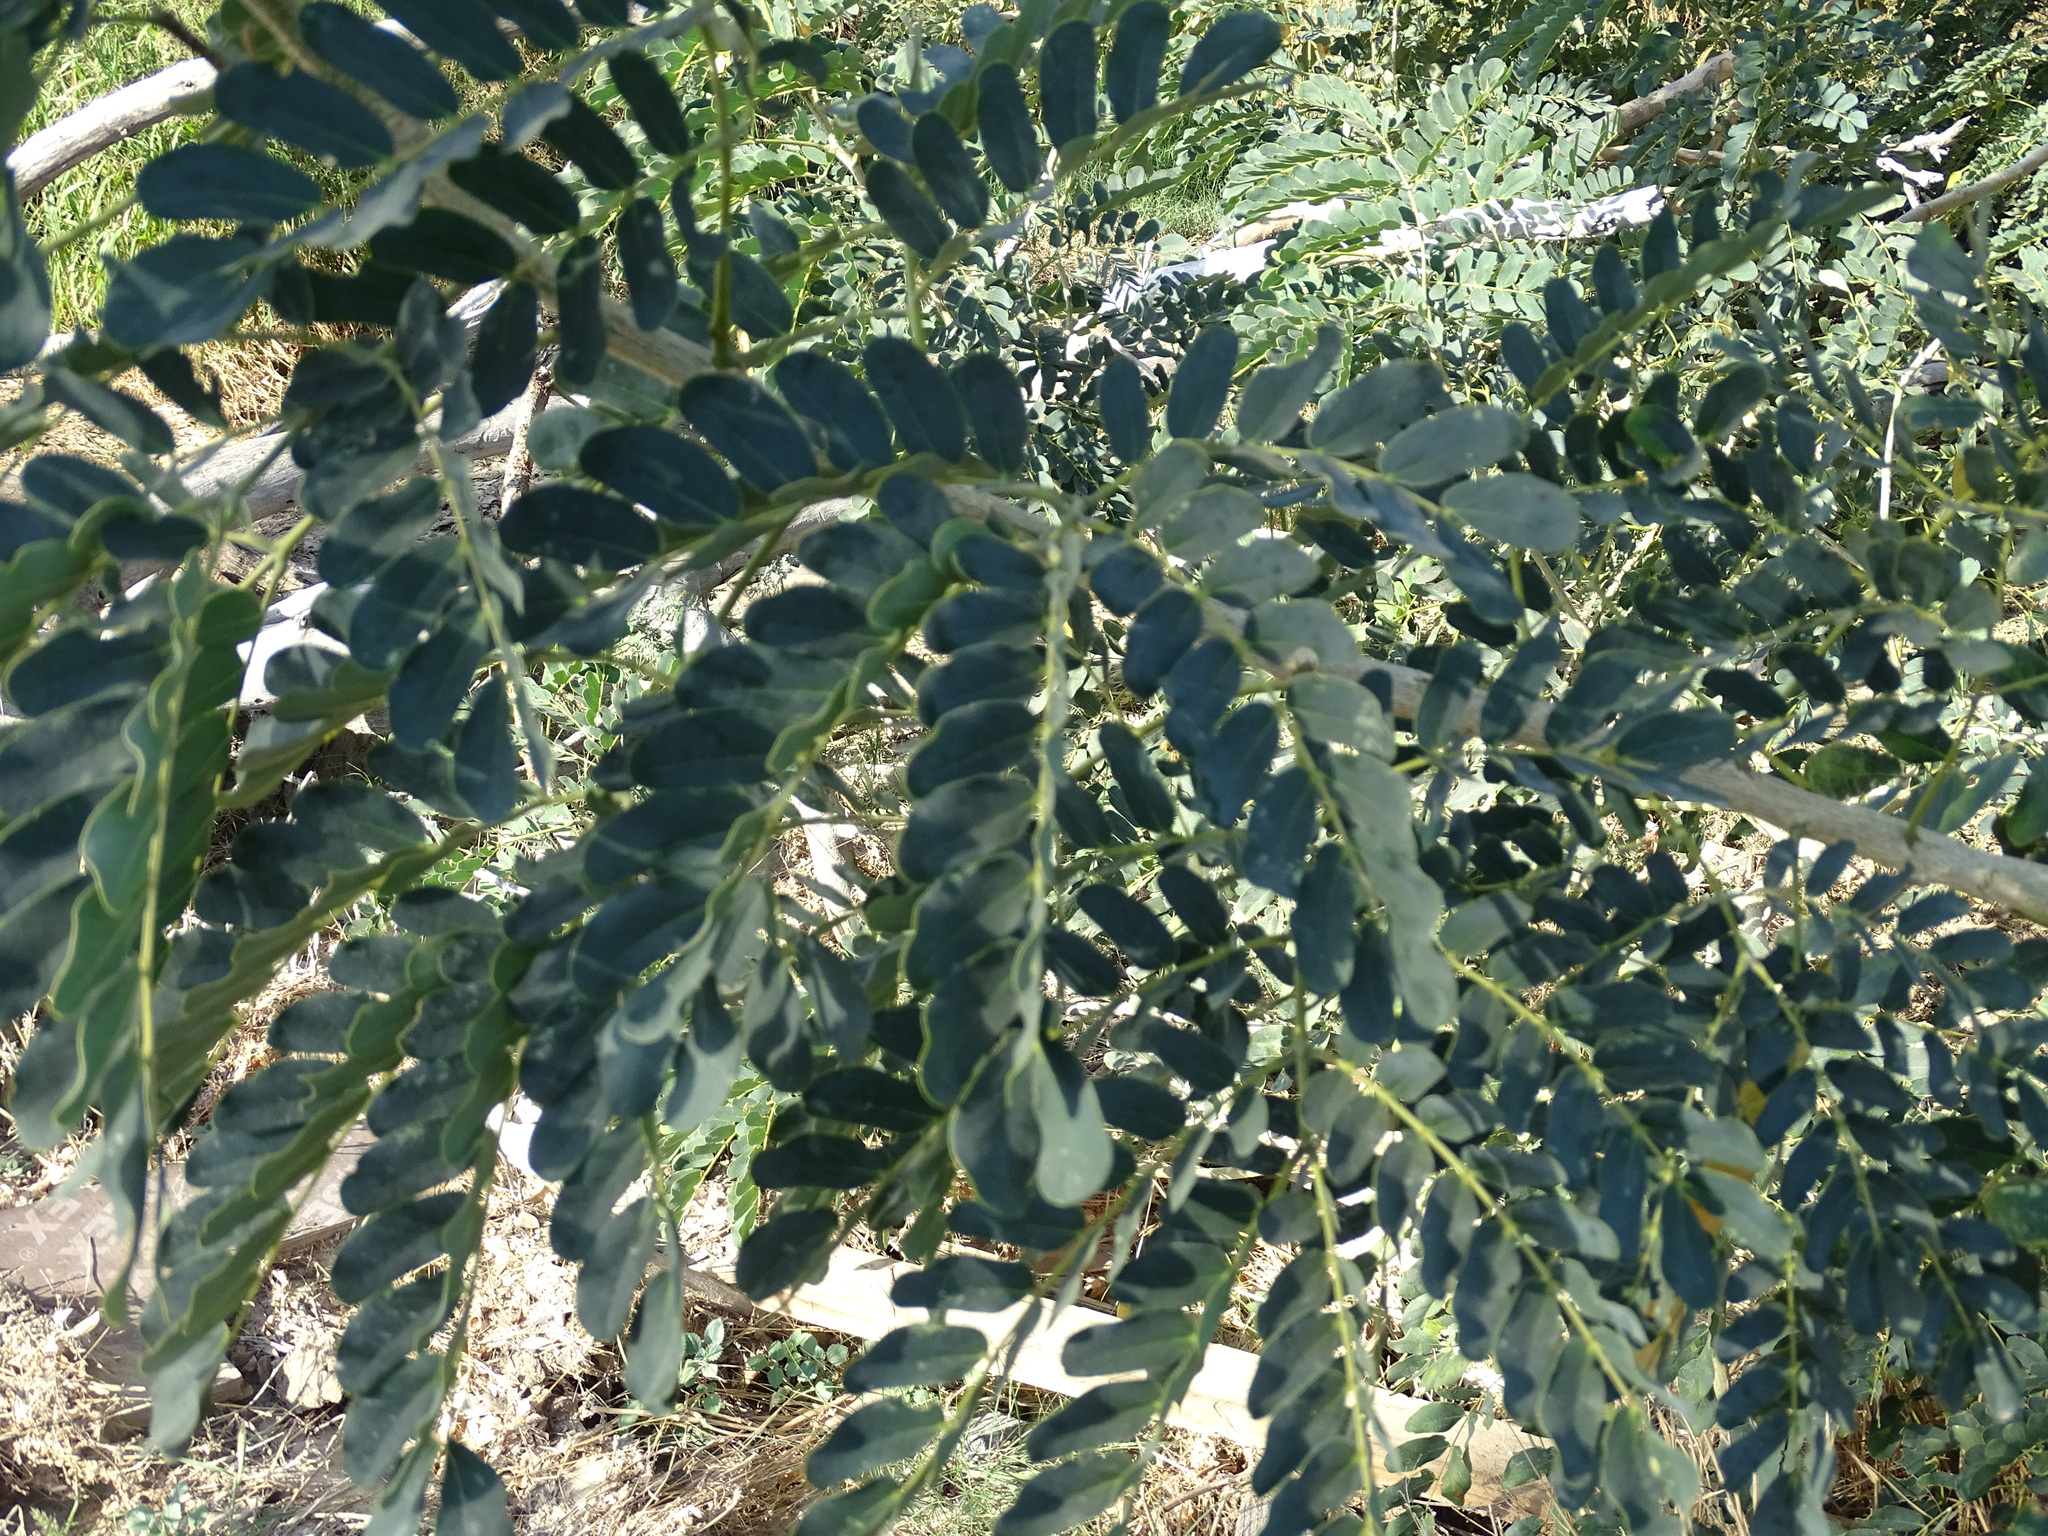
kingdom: Plantae
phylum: Tracheophyta
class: Magnoliopsida
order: Fabales
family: Fabaceae
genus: Albizia
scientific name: Albizia lebbeck
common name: Woman's tongue
